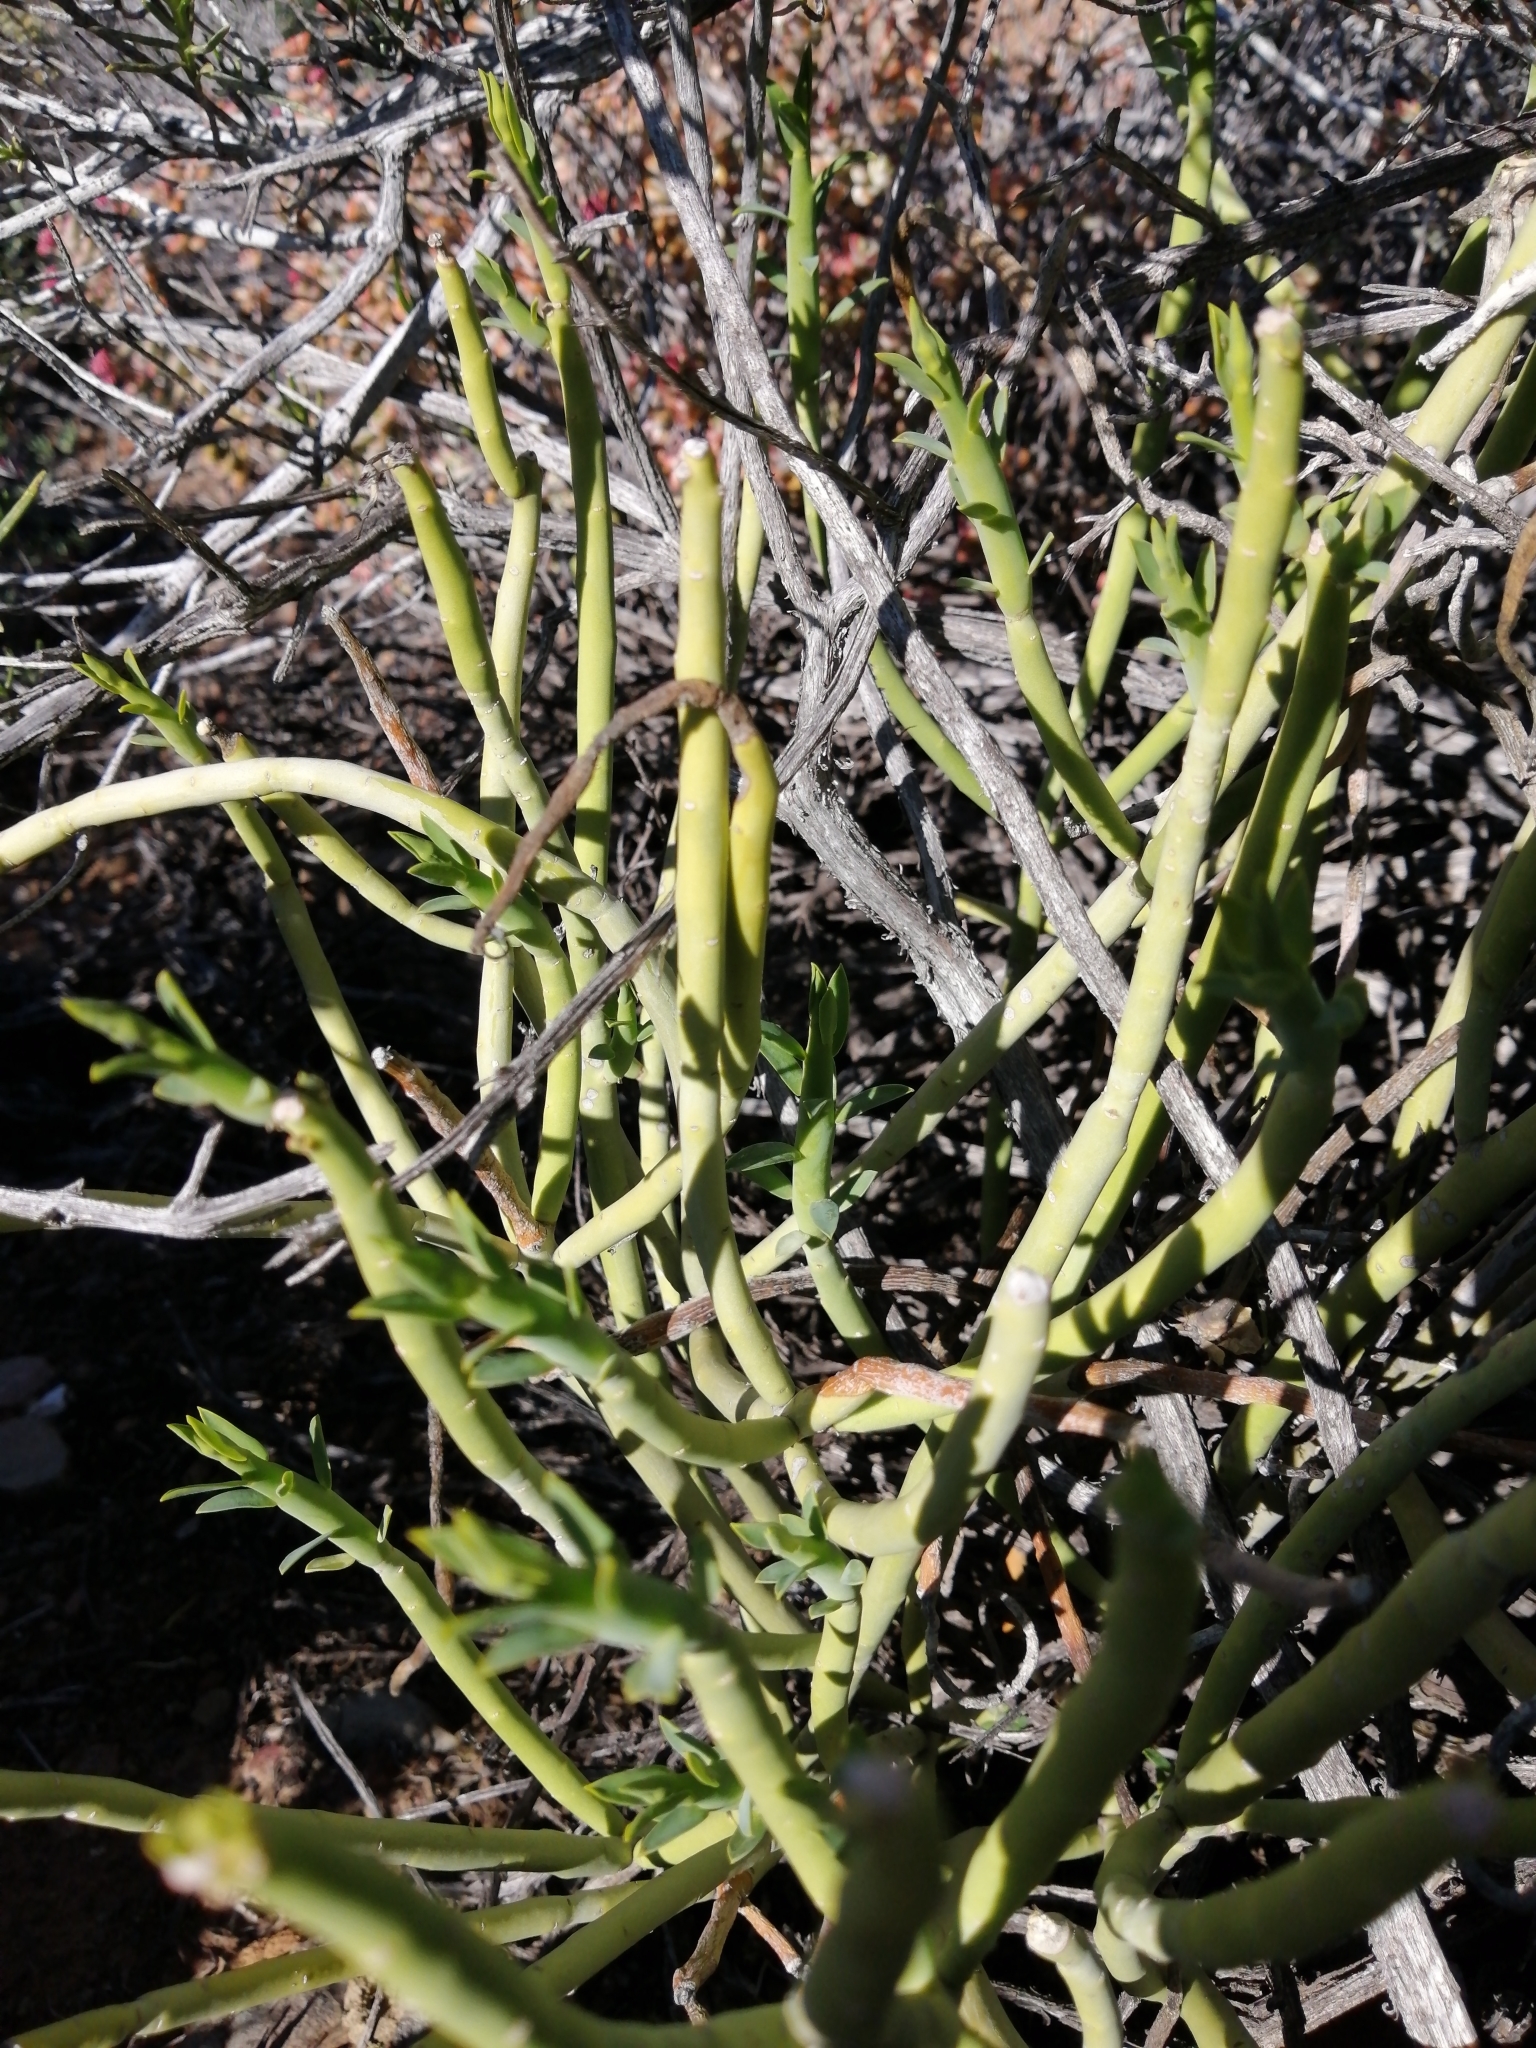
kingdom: Plantae
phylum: Tracheophyta
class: Magnoliopsida
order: Malpighiales
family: Euphorbiaceae
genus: Euphorbia
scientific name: Euphorbia mauritanica
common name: Jackal's-food
